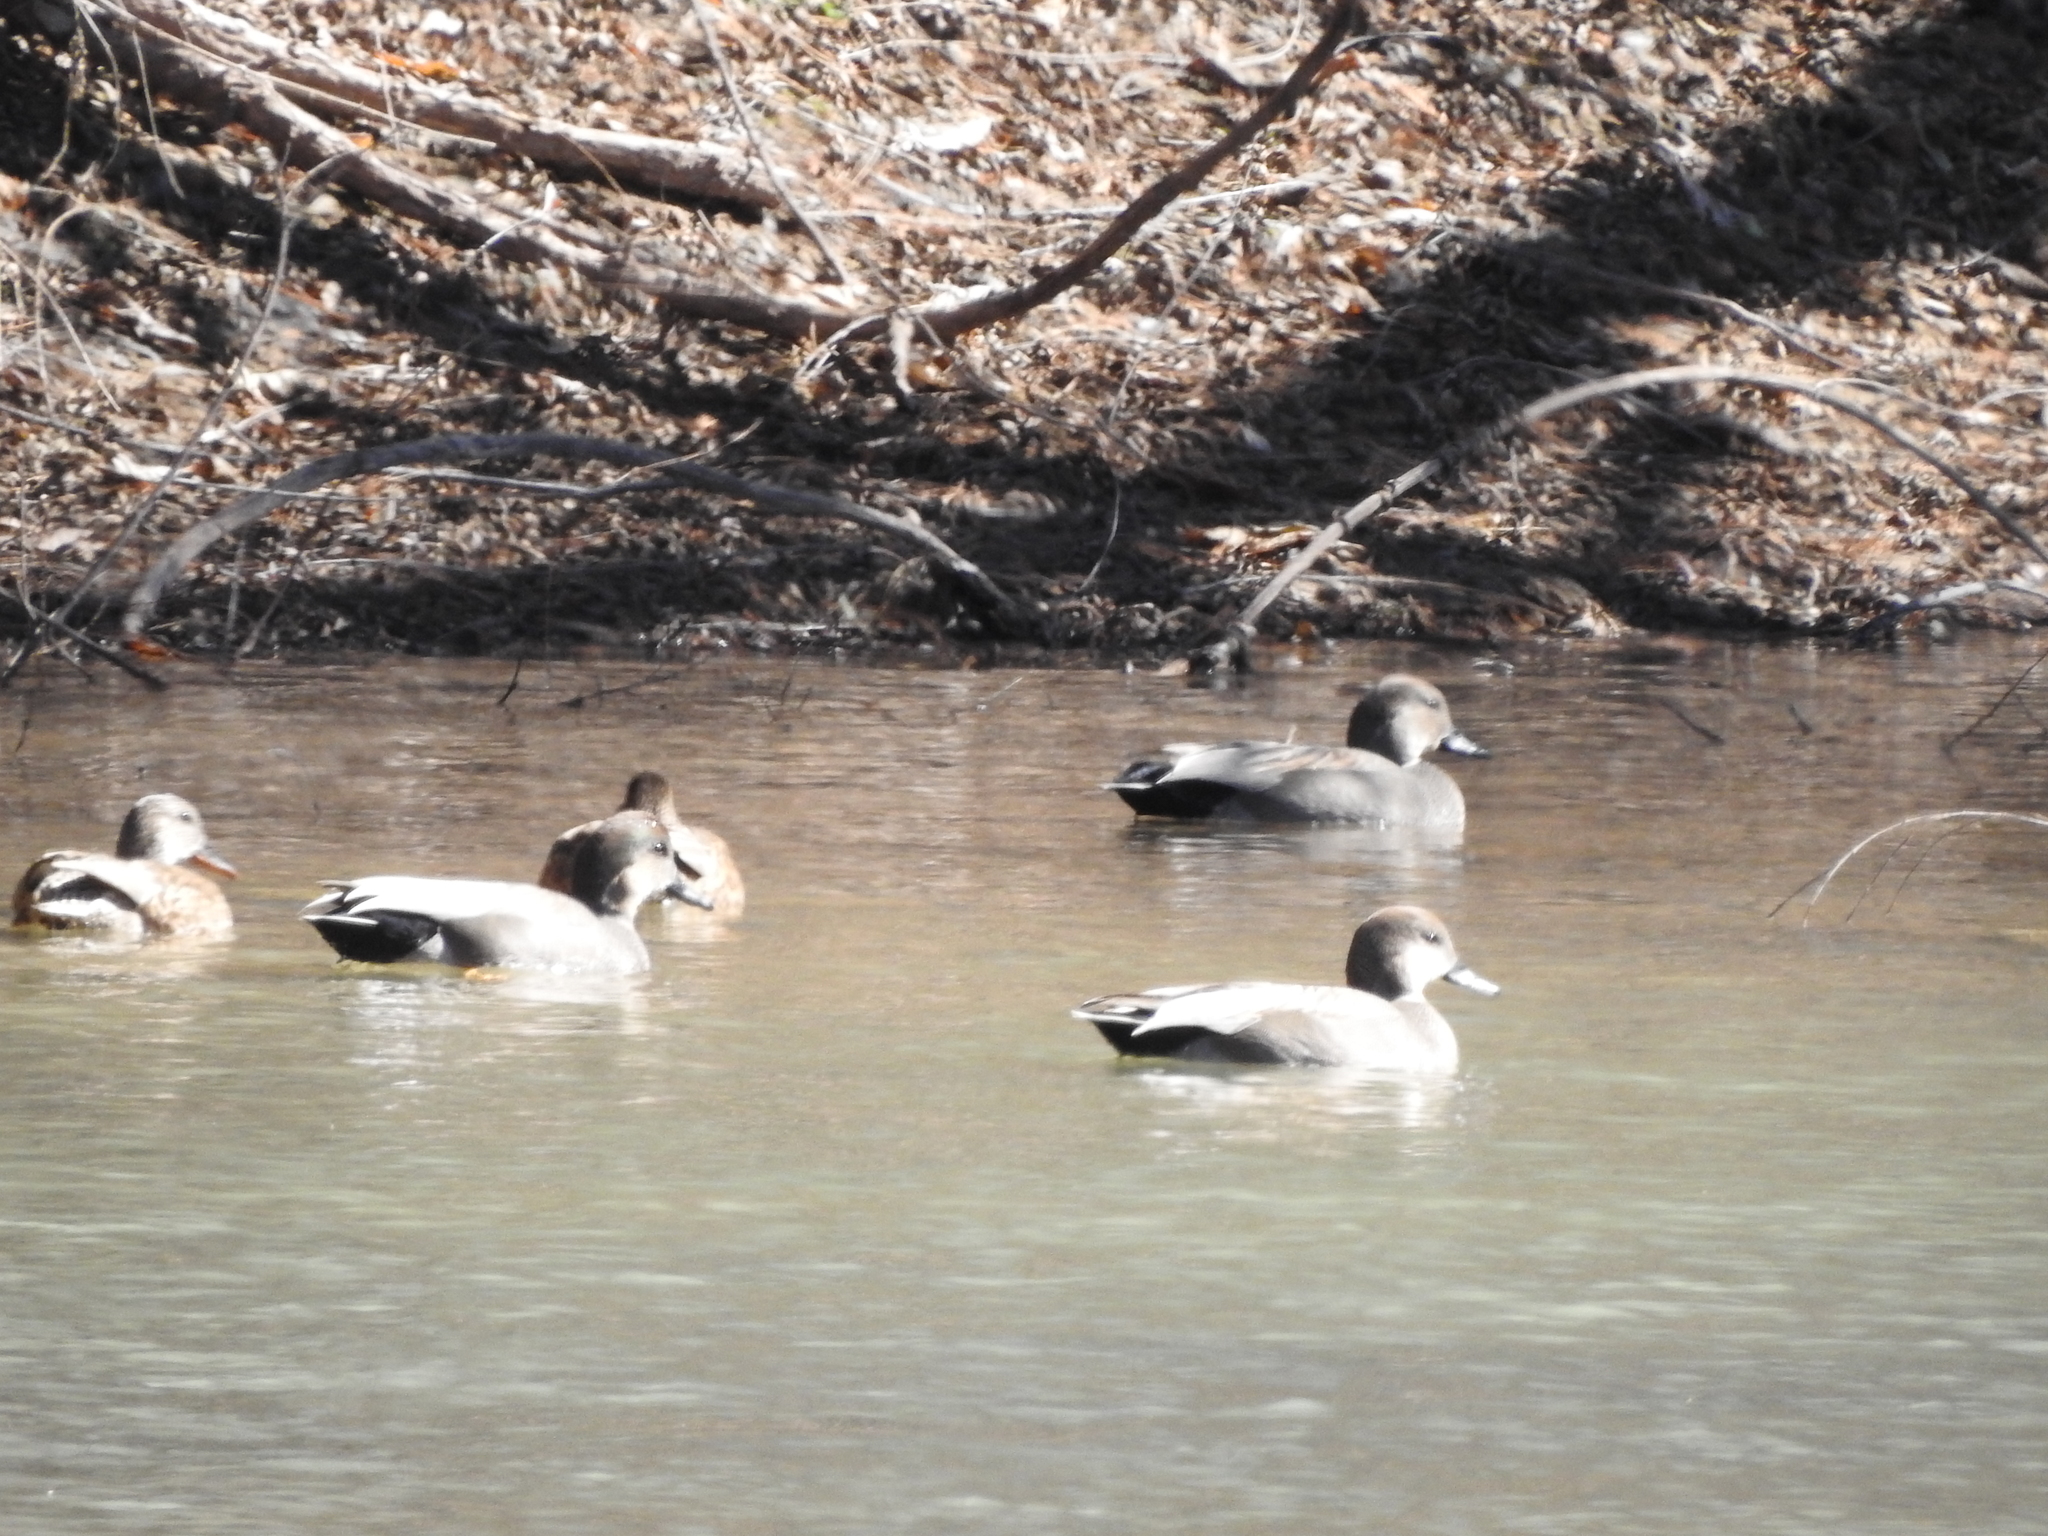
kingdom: Animalia
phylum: Chordata
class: Aves
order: Anseriformes
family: Anatidae
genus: Mareca
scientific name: Mareca strepera
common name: Gadwall
